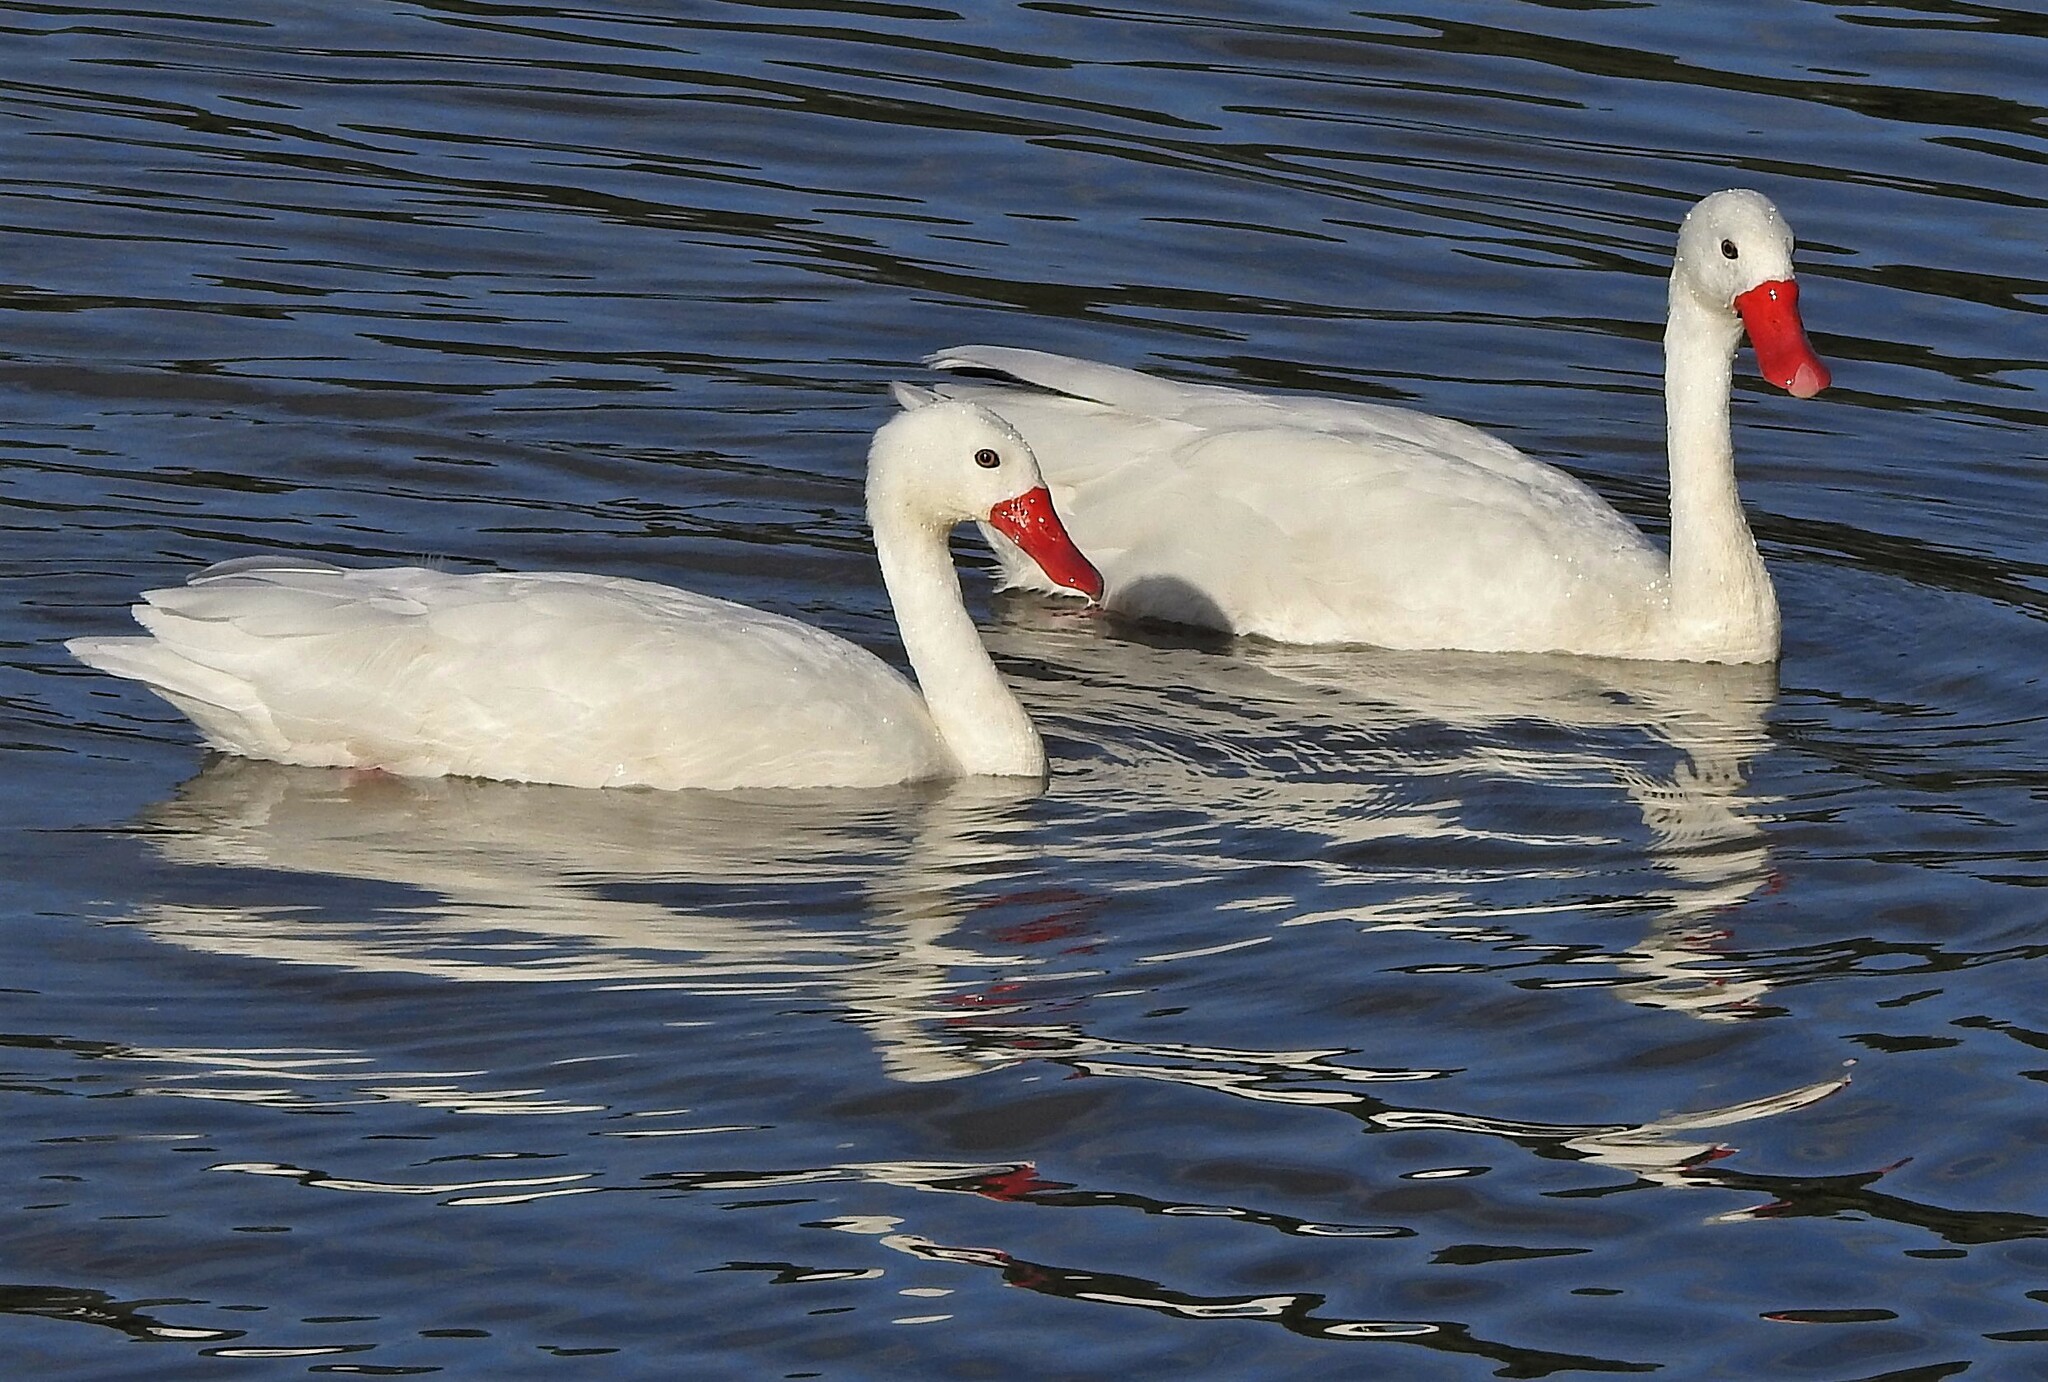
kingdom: Animalia
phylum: Chordata
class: Aves
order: Anseriformes
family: Anatidae
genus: Coscoroba
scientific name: Coscoroba coscoroba
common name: Coscoroba swan
